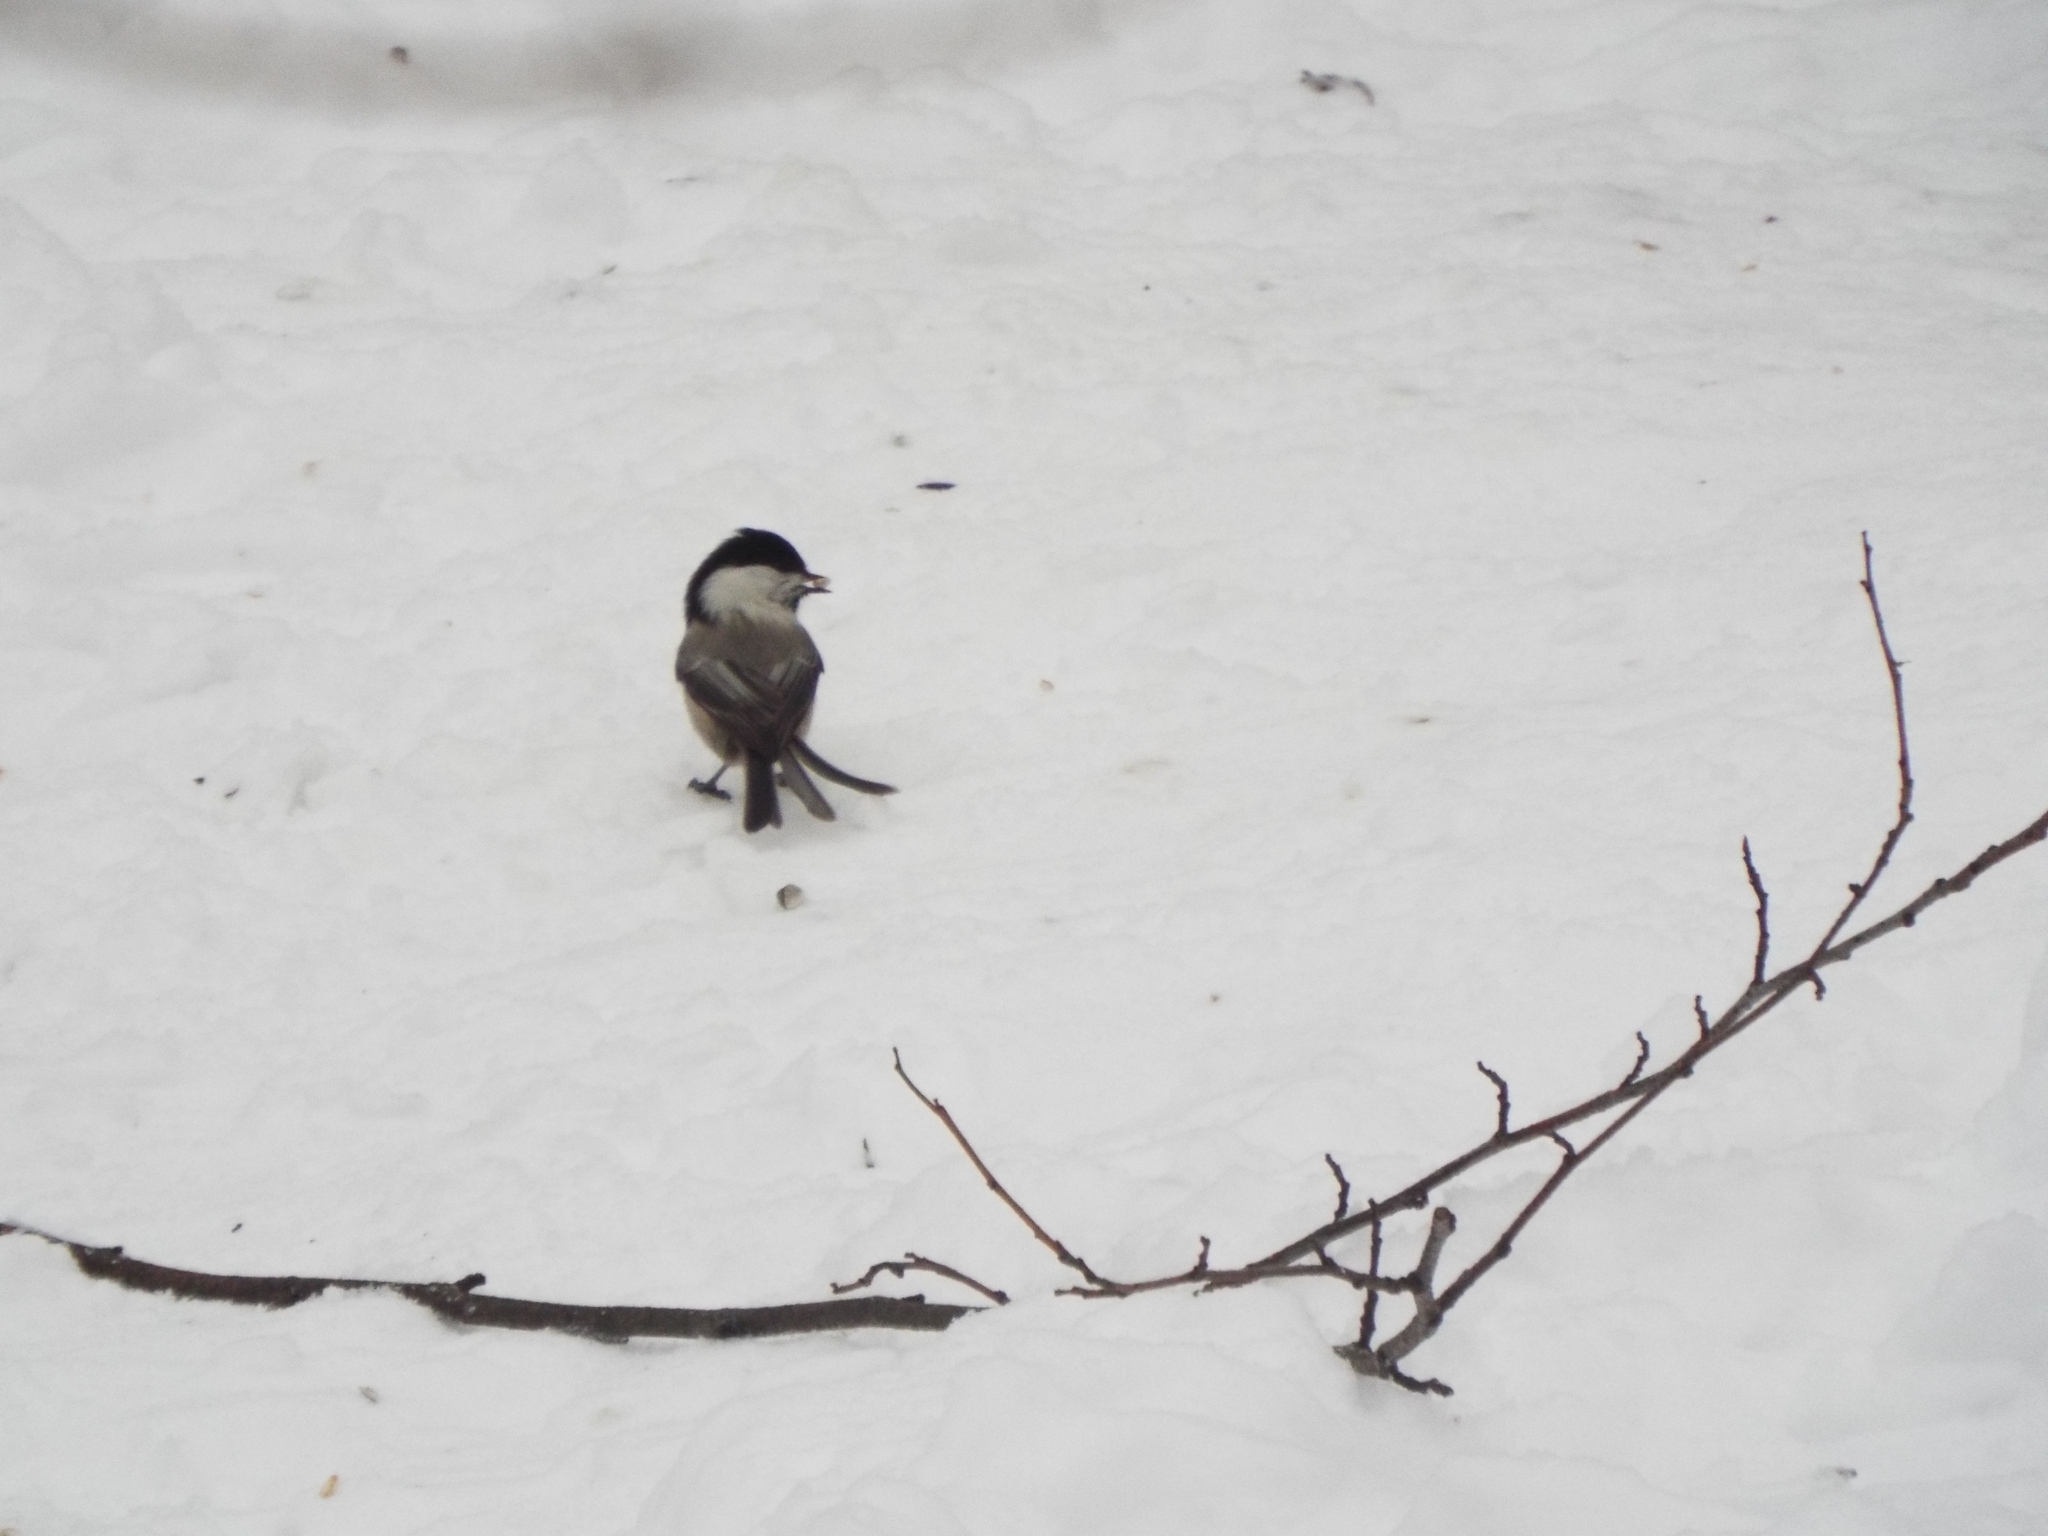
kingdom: Animalia
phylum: Chordata
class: Aves
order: Passeriformes
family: Paridae
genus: Poecile
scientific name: Poecile montanus
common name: Willow tit
